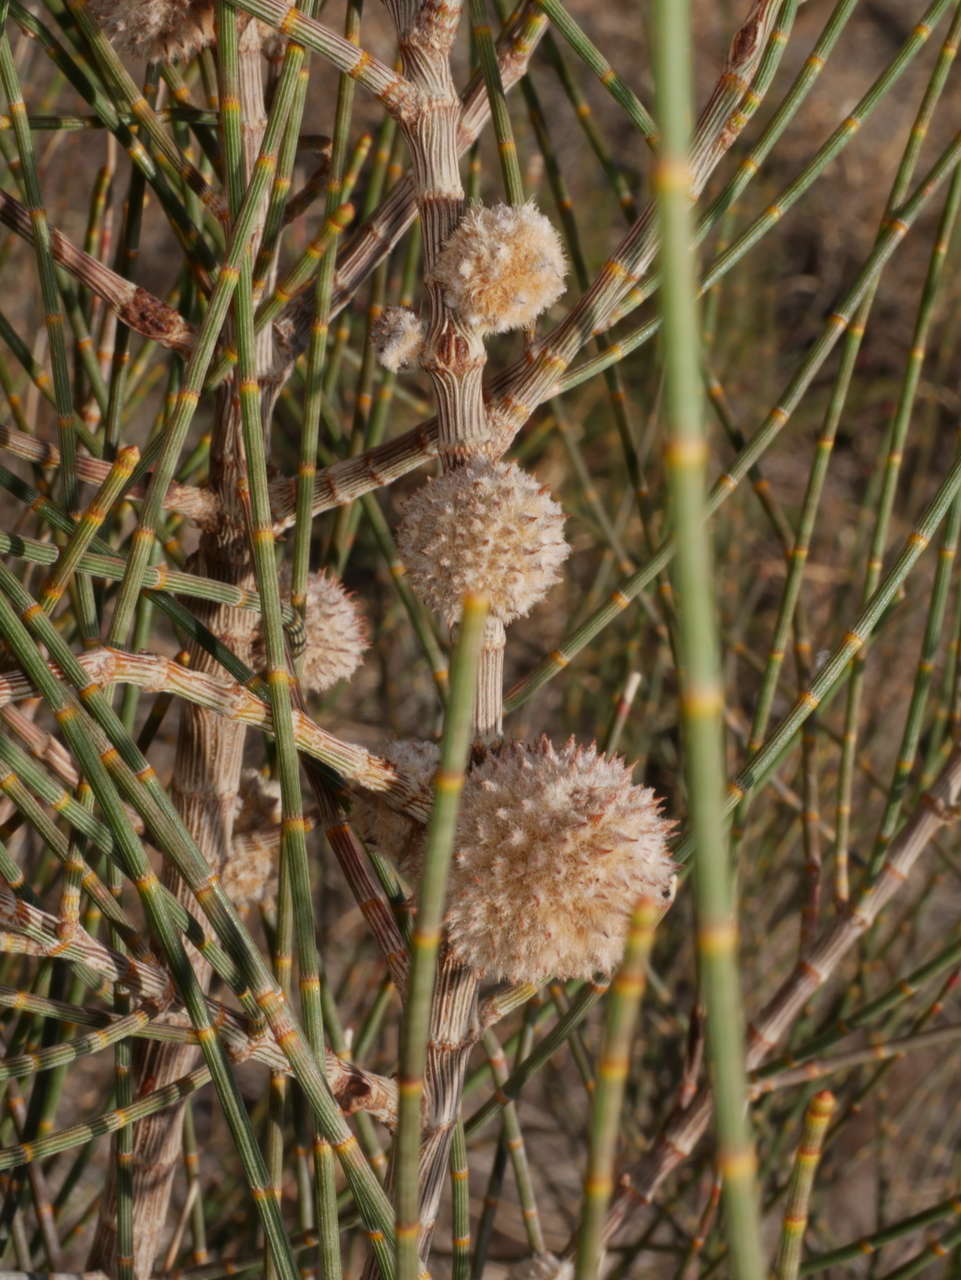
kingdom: Animalia
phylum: Arthropoda
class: Insecta
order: Diptera
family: Cecidomyiidae
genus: Skusemyia
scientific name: Skusemyia allocasuarinae
